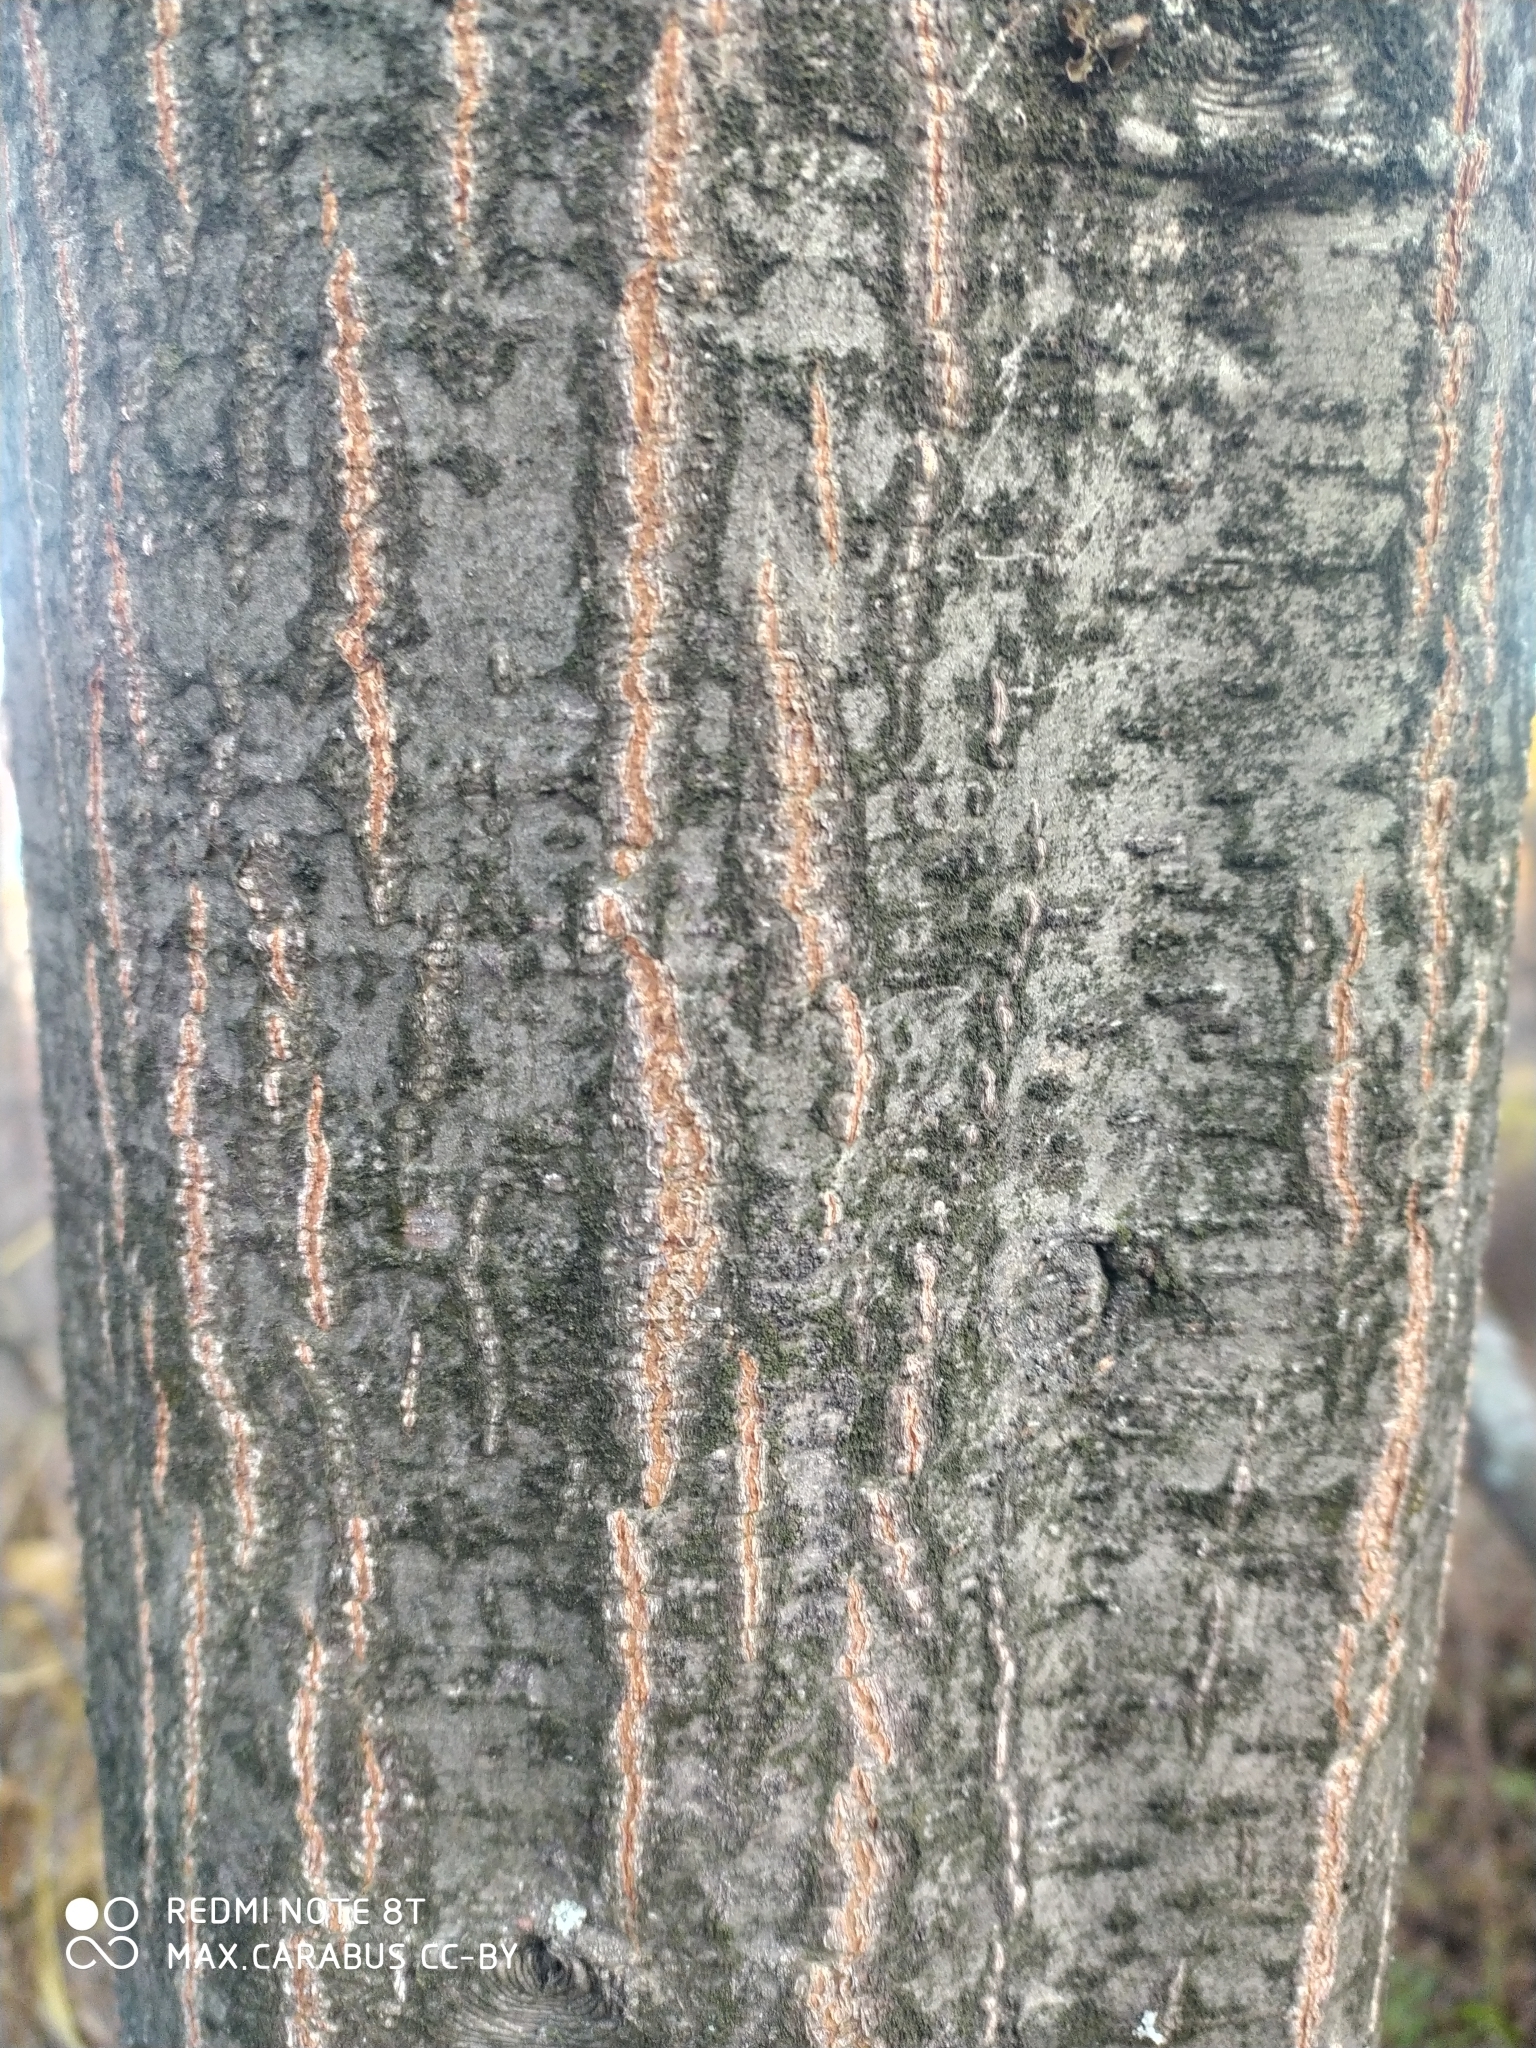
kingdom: Plantae
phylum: Tracheophyta
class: Magnoliopsida
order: Fagales
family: Betulaceae
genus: Alnus
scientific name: Alnus incana
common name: Grey alder
